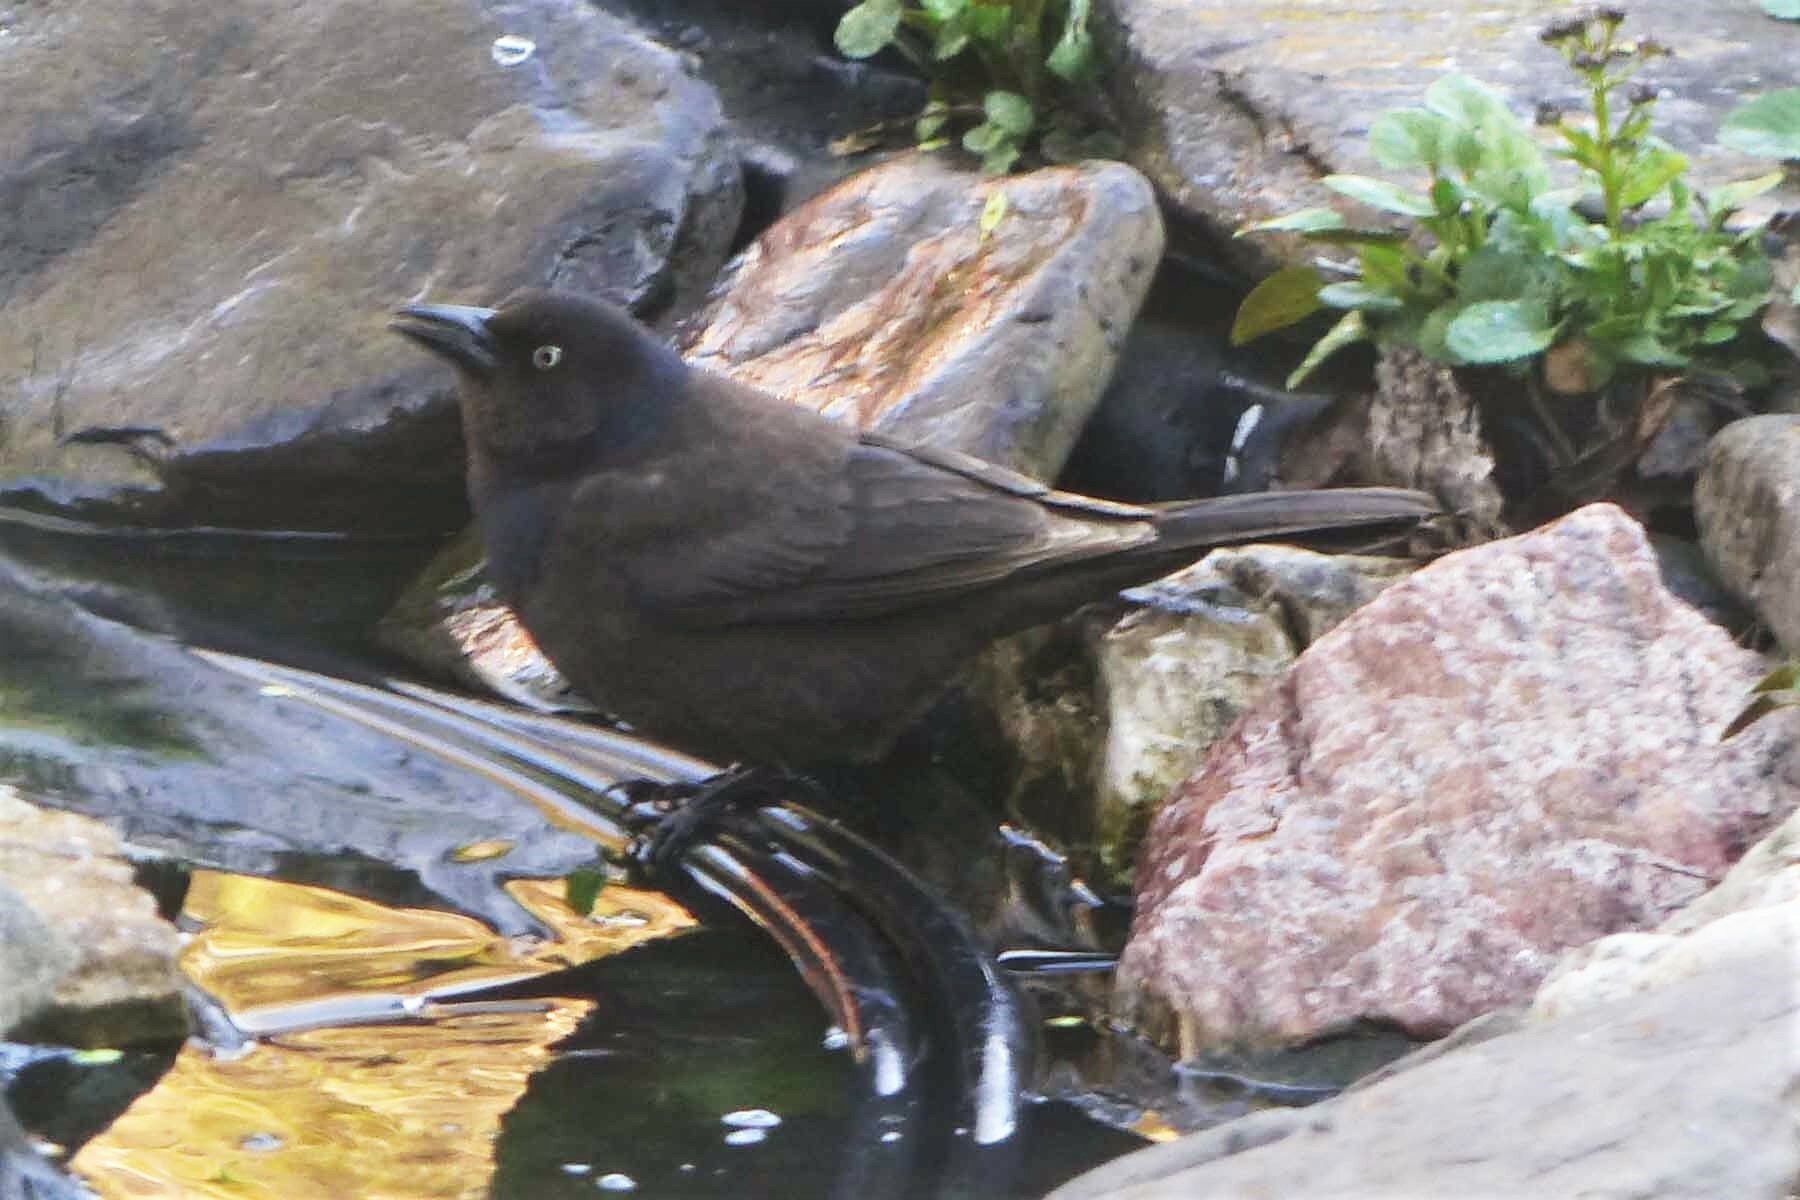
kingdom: Animalia
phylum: Chordata
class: Aves
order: Passeriformes
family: Icteridae
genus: Euphagus
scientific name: Euphagus carolinus
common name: Rusty blackbird
